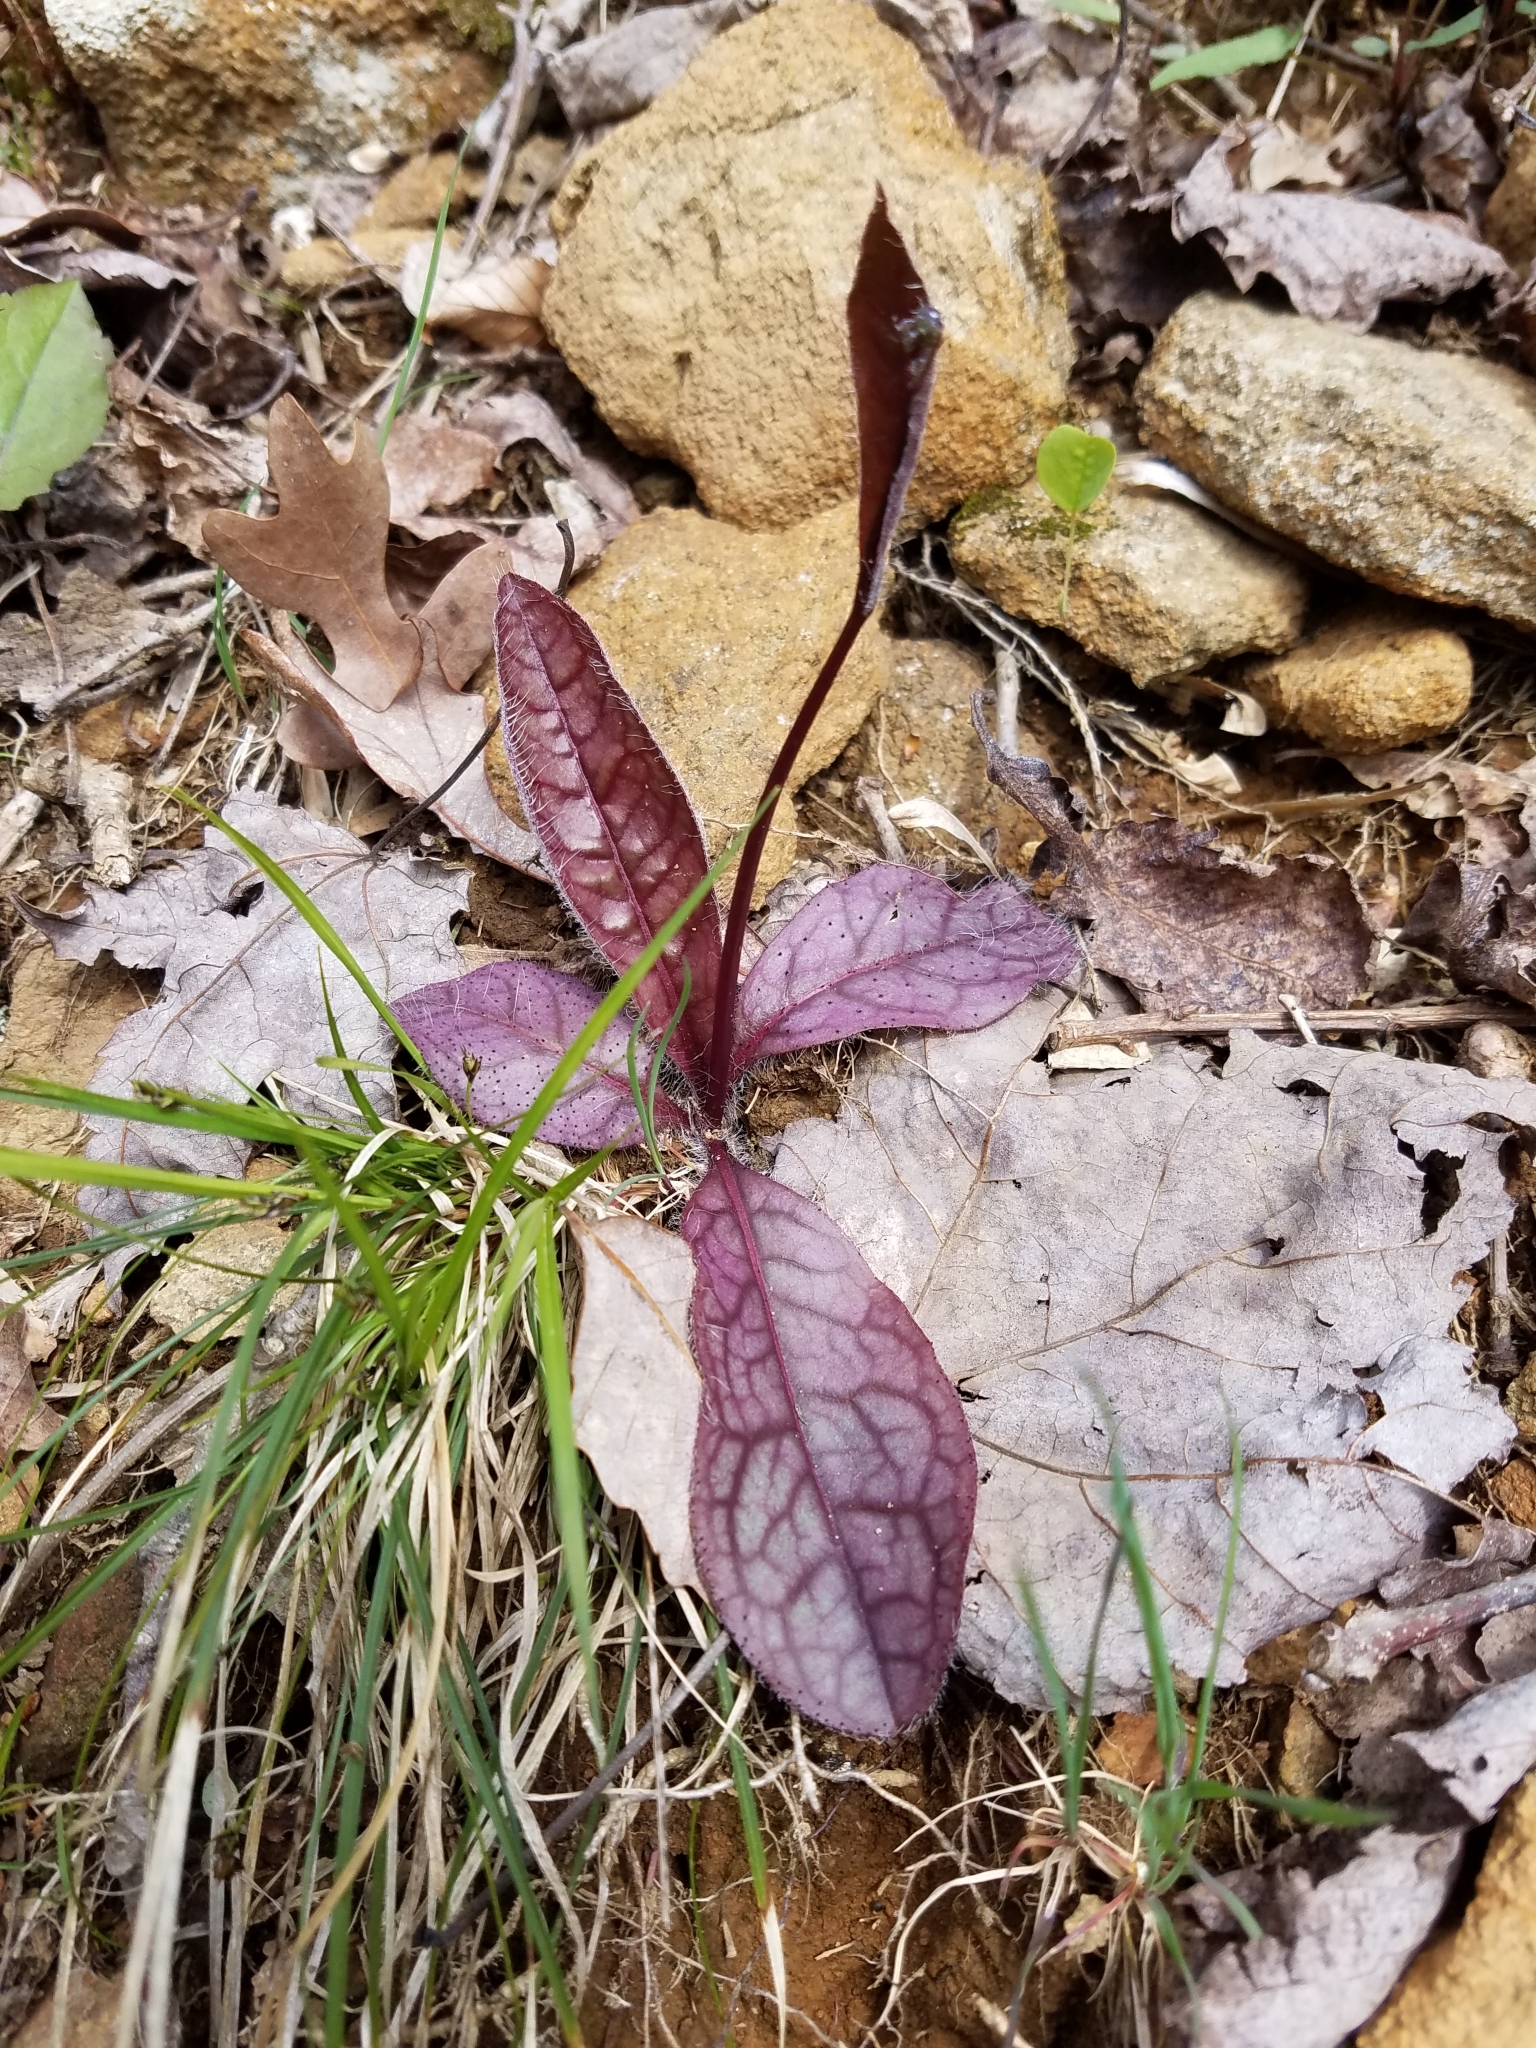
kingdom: Plantae
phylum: Tracheophyta
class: Magnoliopsida
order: Asterales
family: Asteraceae
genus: Hieracium
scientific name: Hieracium venosum
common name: Rattlesnake hawkweed
